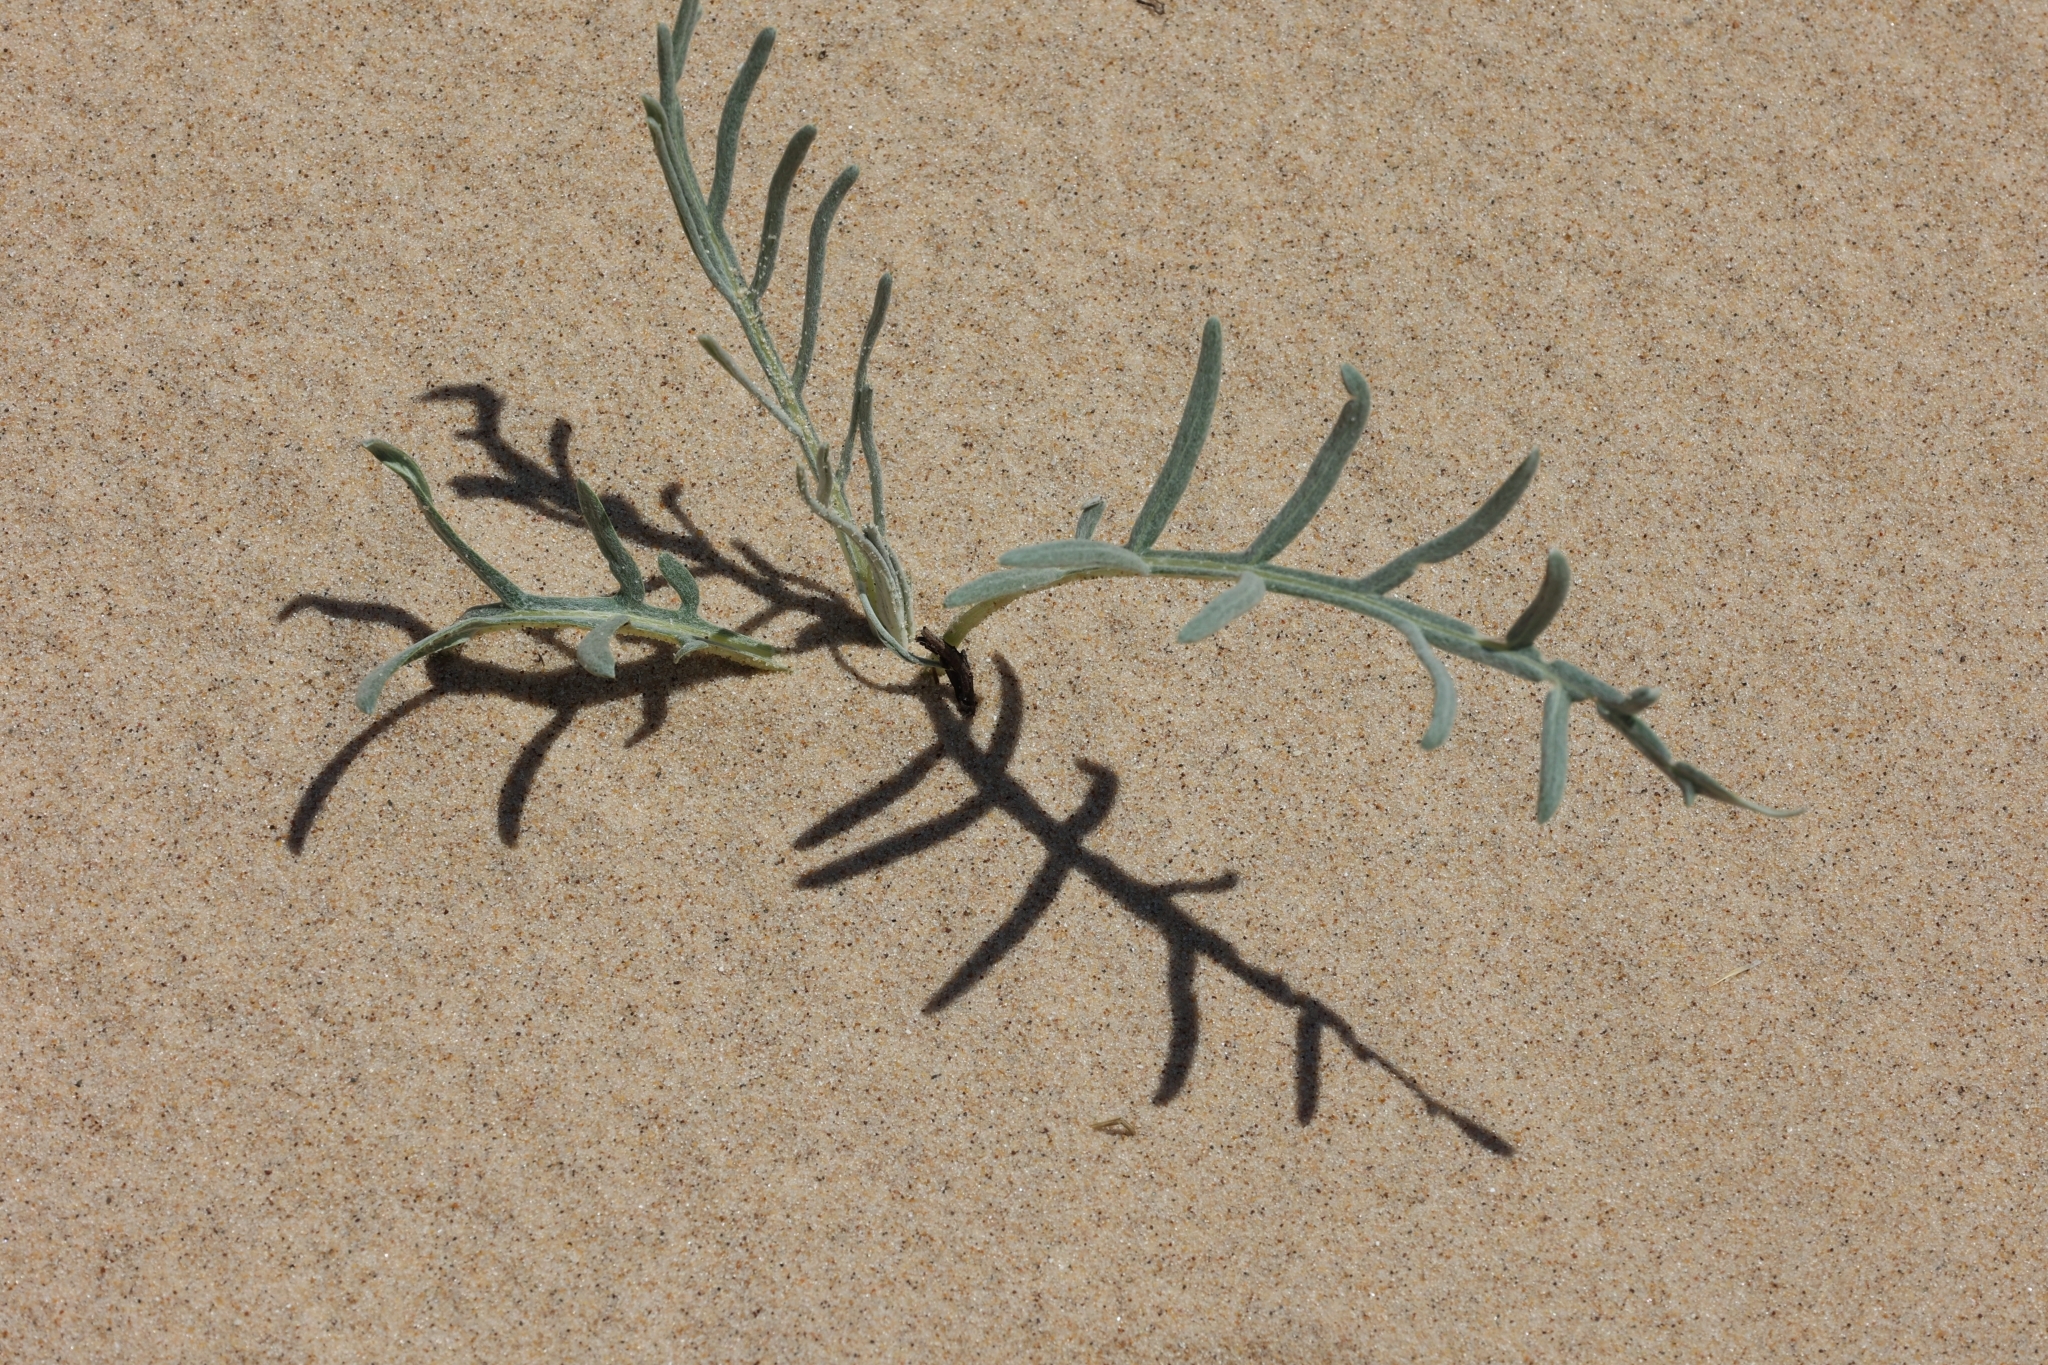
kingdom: Plantae
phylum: Tracheophyta
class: Magnoliopsida
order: Asterales
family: Asteraceae
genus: Cirsium
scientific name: Cirsium pitcheri
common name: Dune thistle
